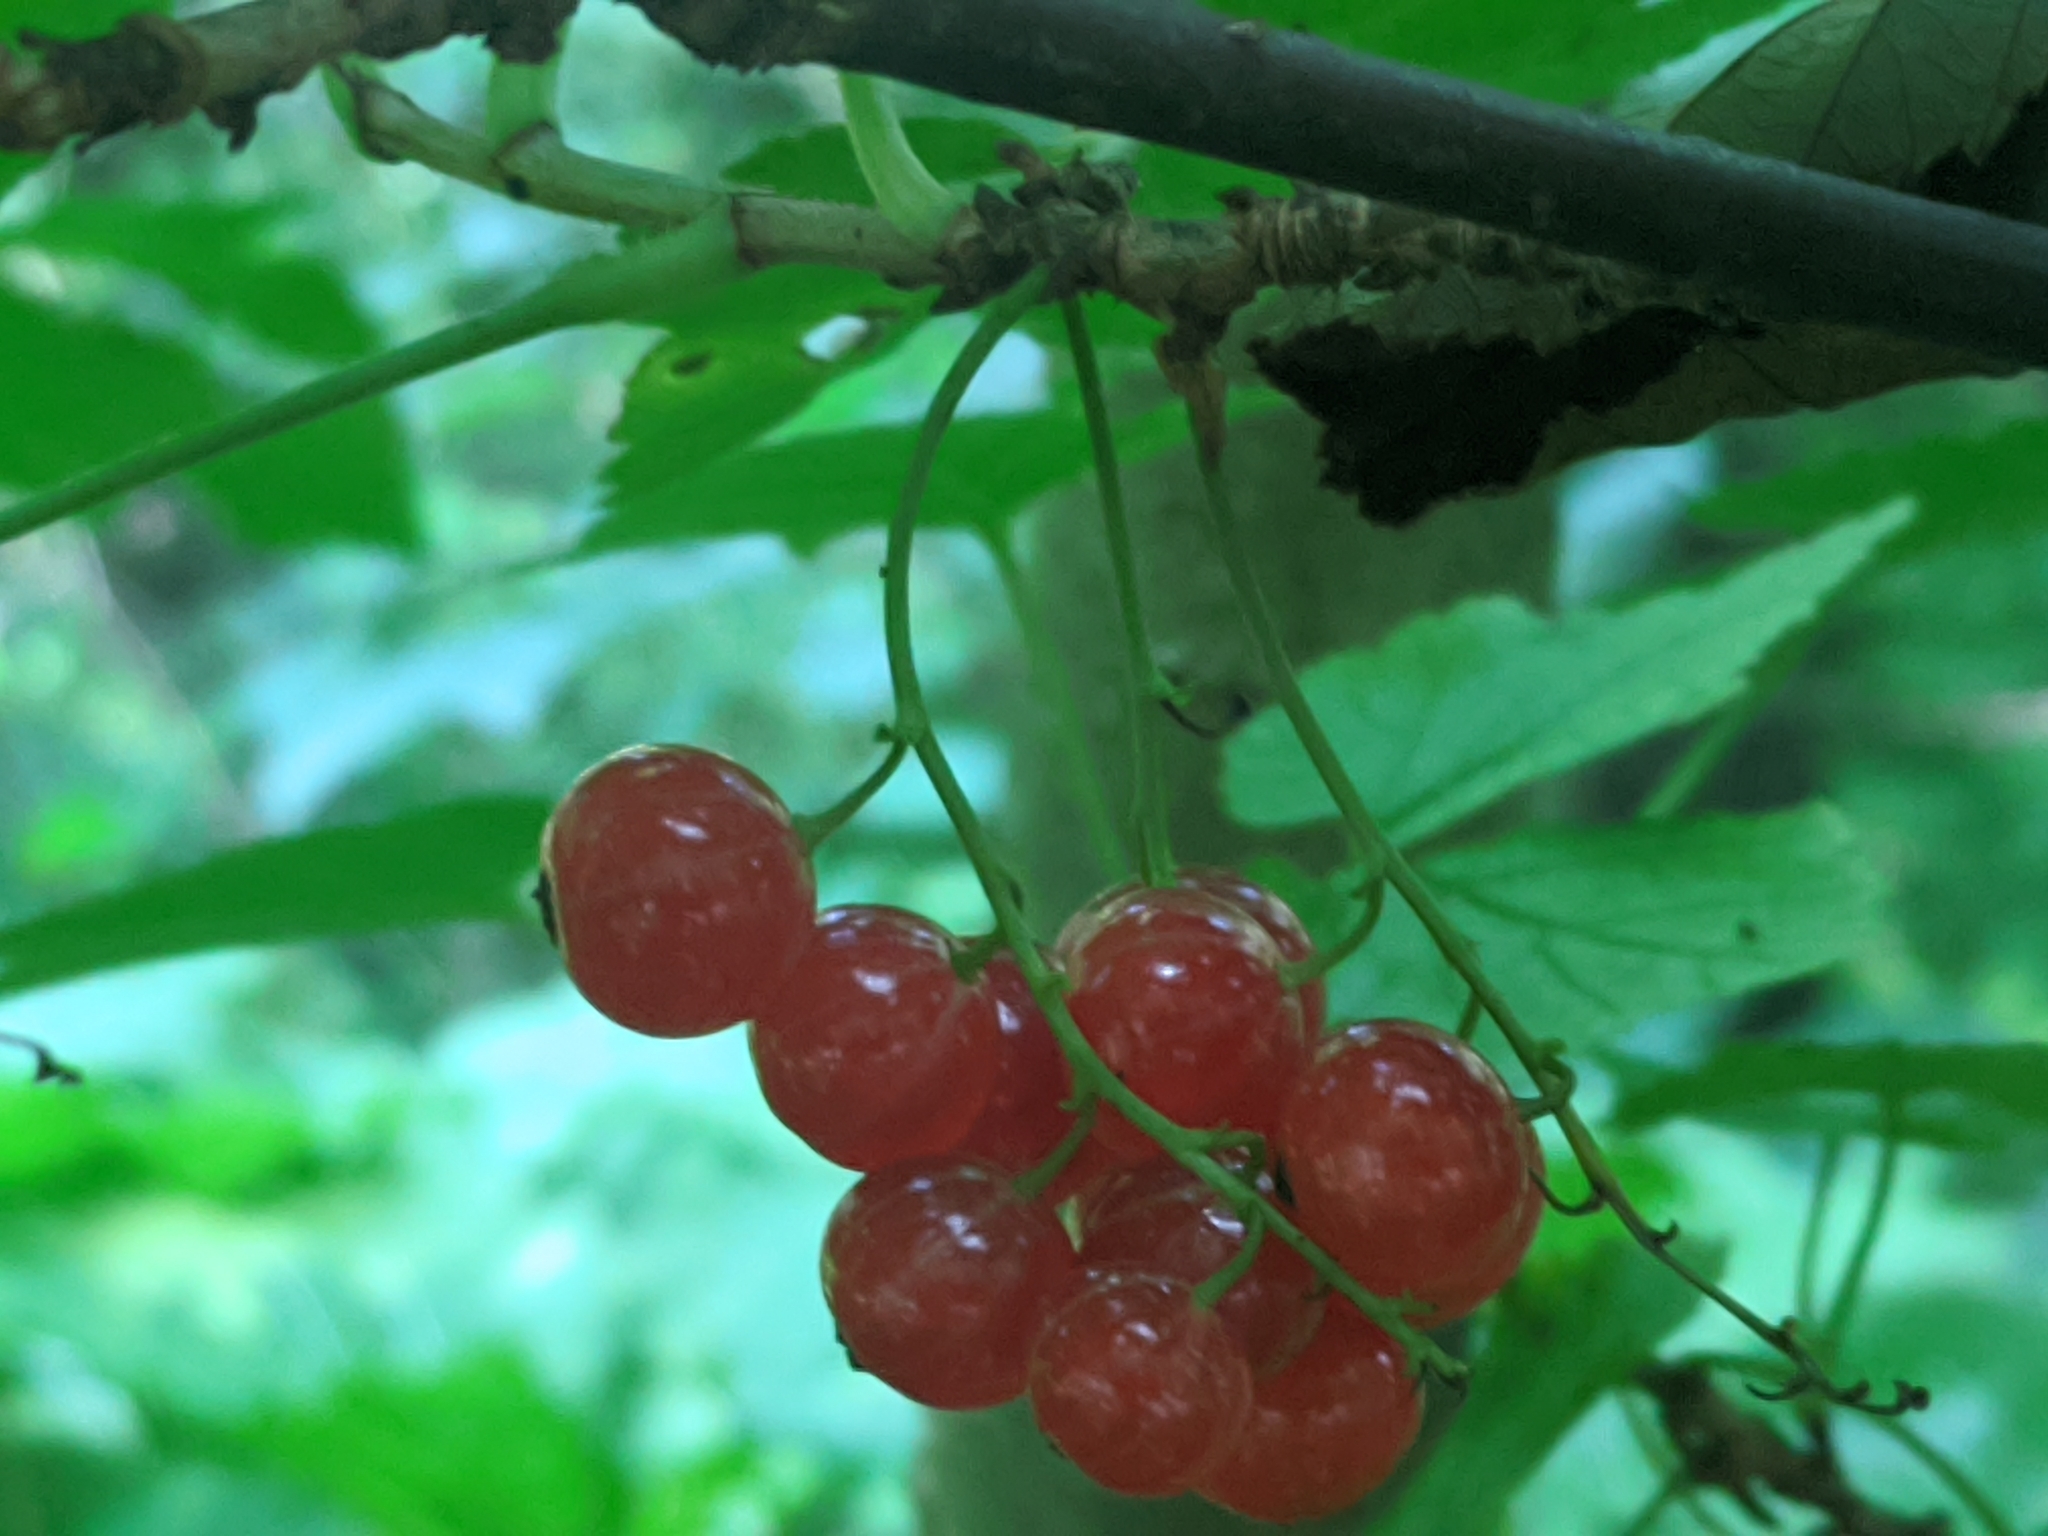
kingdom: Plantae
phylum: Tracheophyta
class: Magnoliopsida
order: Saxifragales
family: Grossulariaceae
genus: Ribes
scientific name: Ribes rubrum
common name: Red currant
